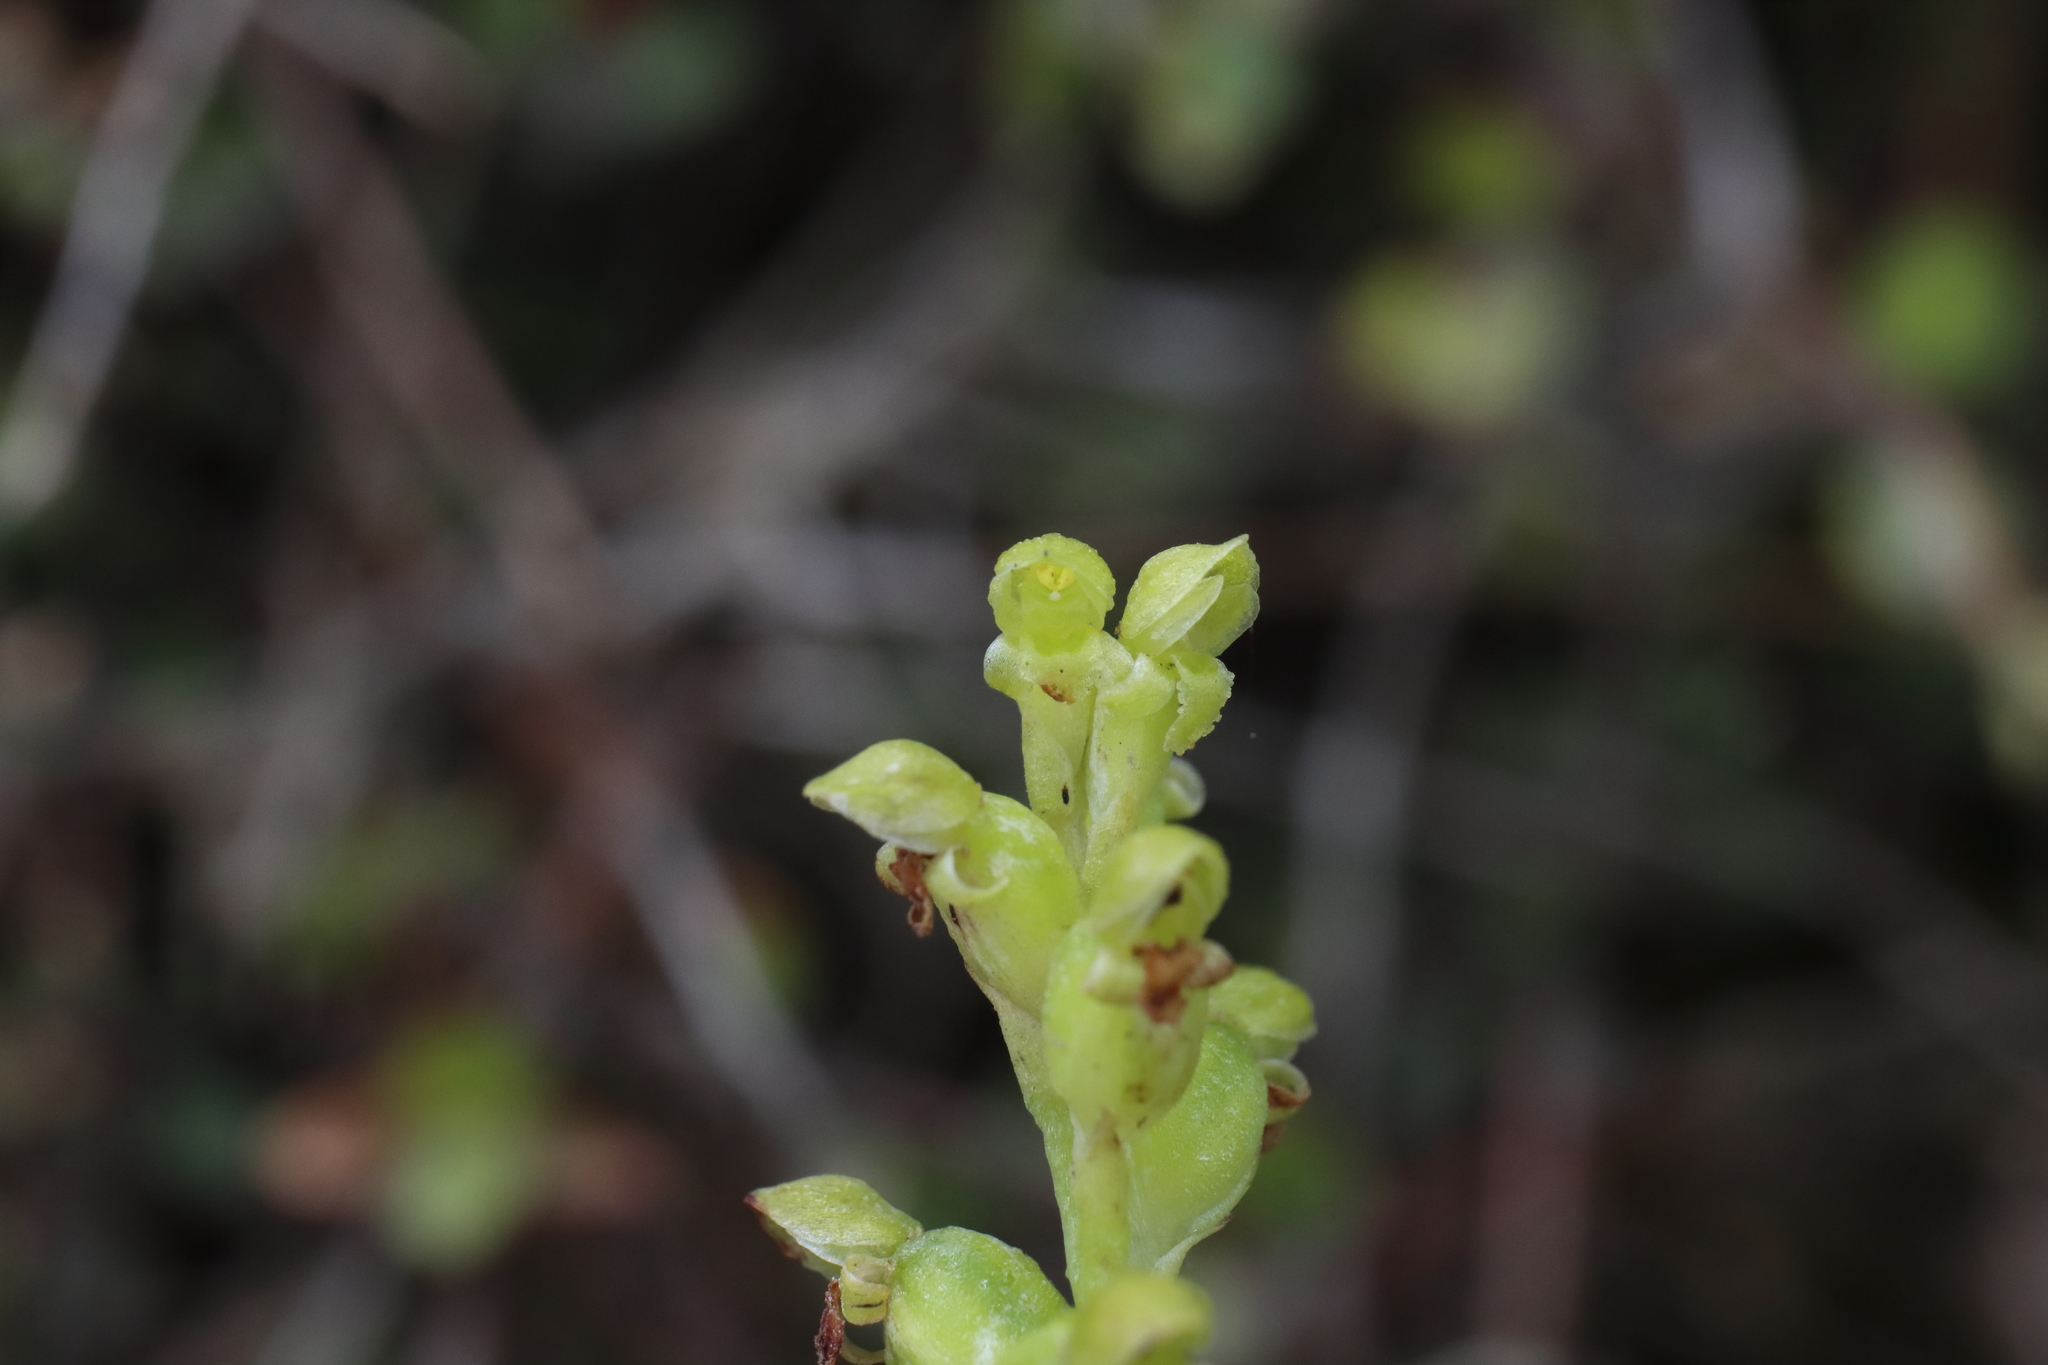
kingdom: Plantae
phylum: Tracheophyta
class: Liliopsida
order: Asparagales
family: Orchidaceae
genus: Microtis
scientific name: Microtis unifolia
